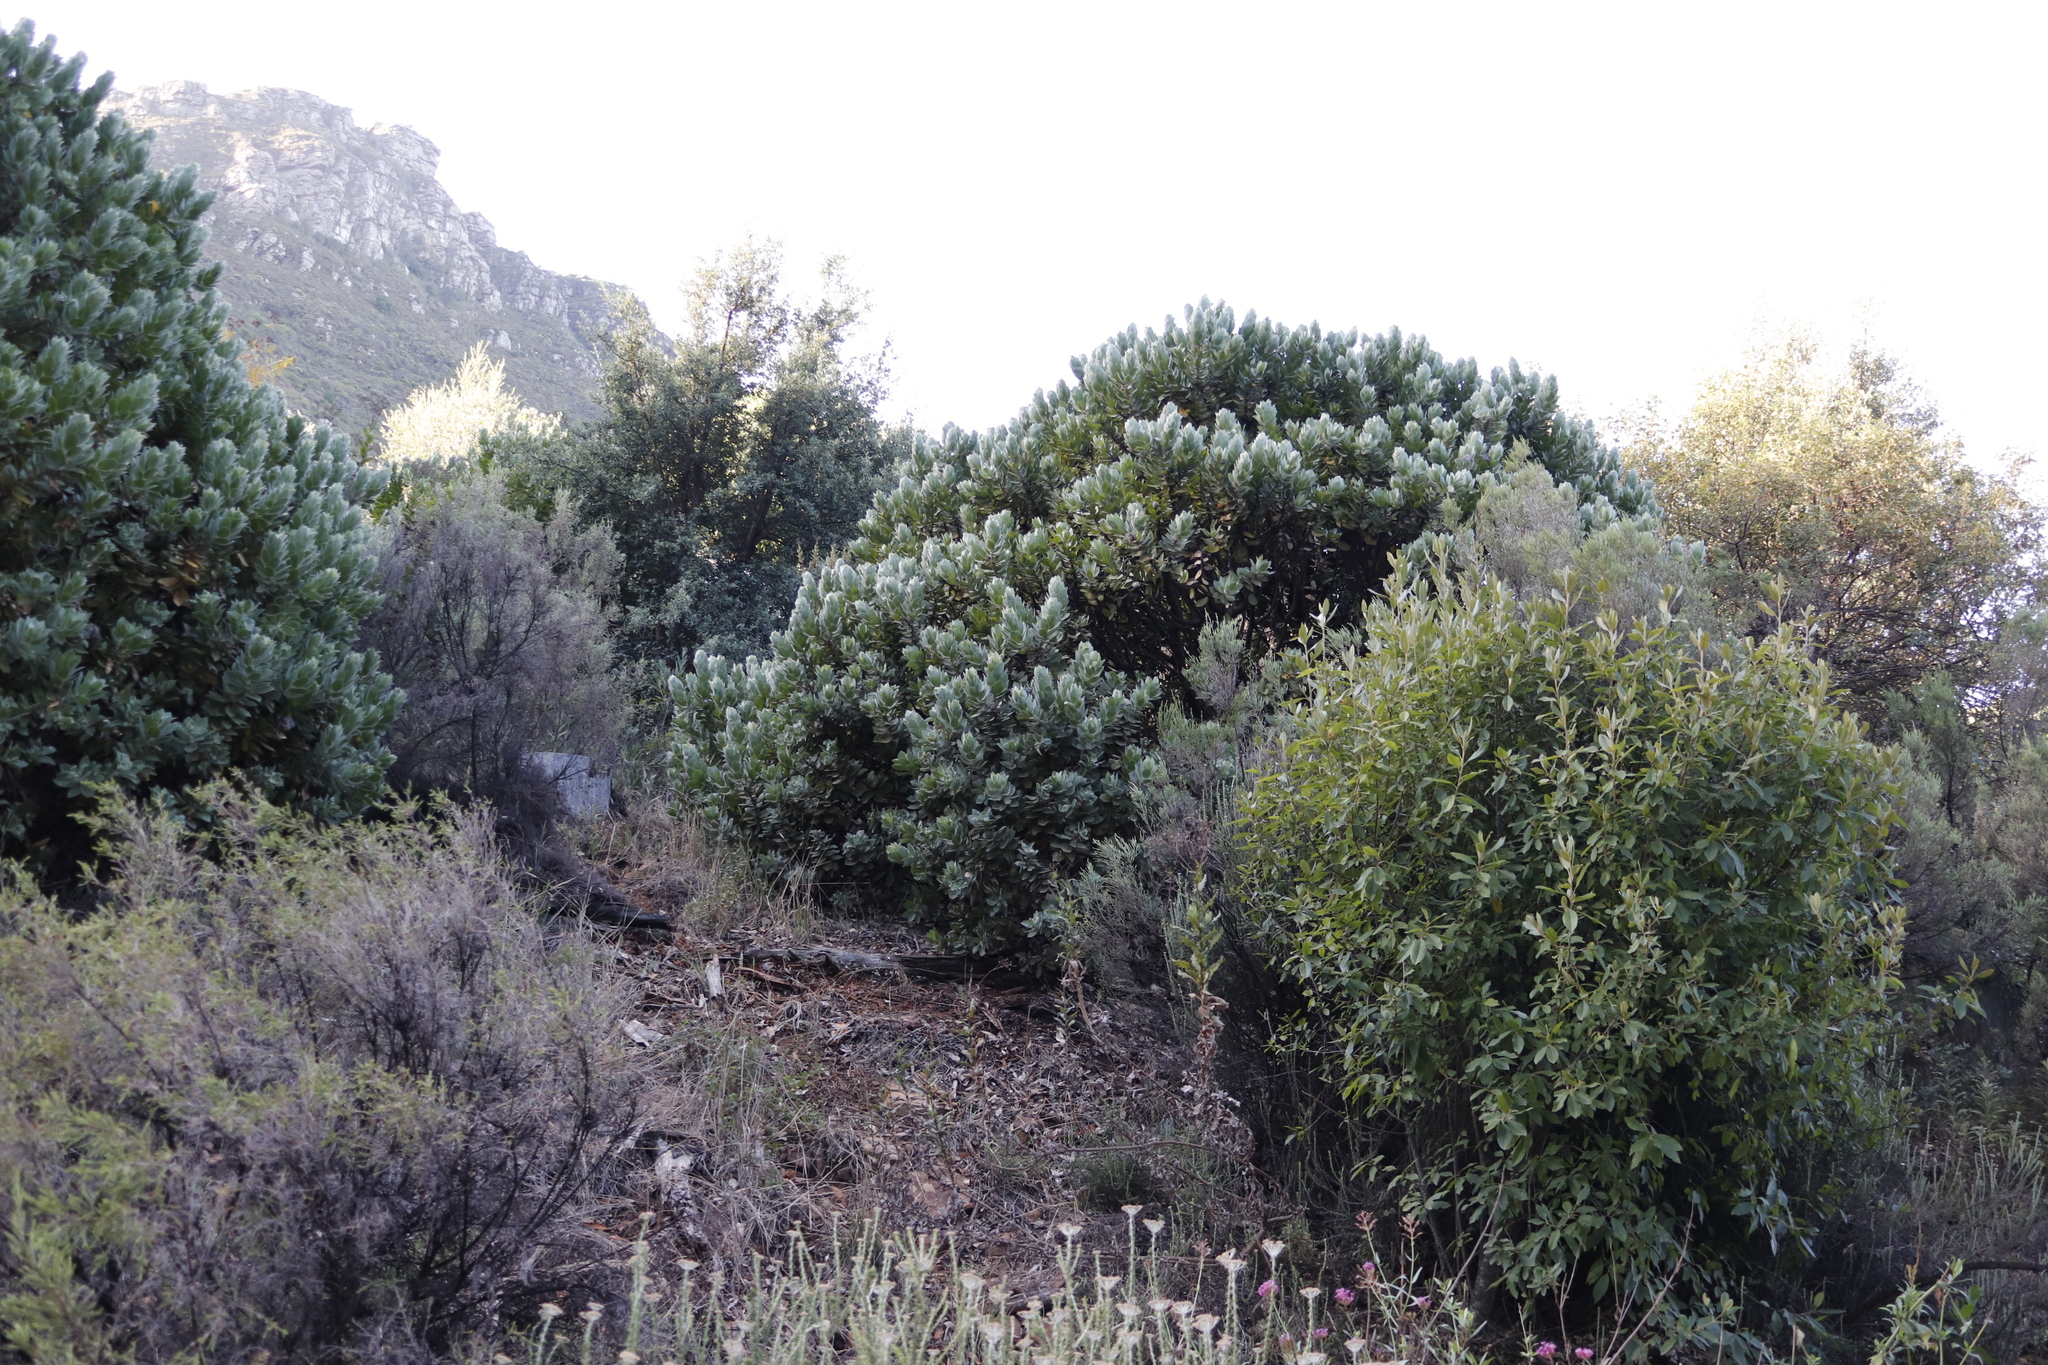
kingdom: Plantae
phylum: Tracheophyta
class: Magnoliopsida
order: Proteales
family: Proteaceae
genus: Leucospermum
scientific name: Leucospermum conocarpodendron
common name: Tree pincushion
